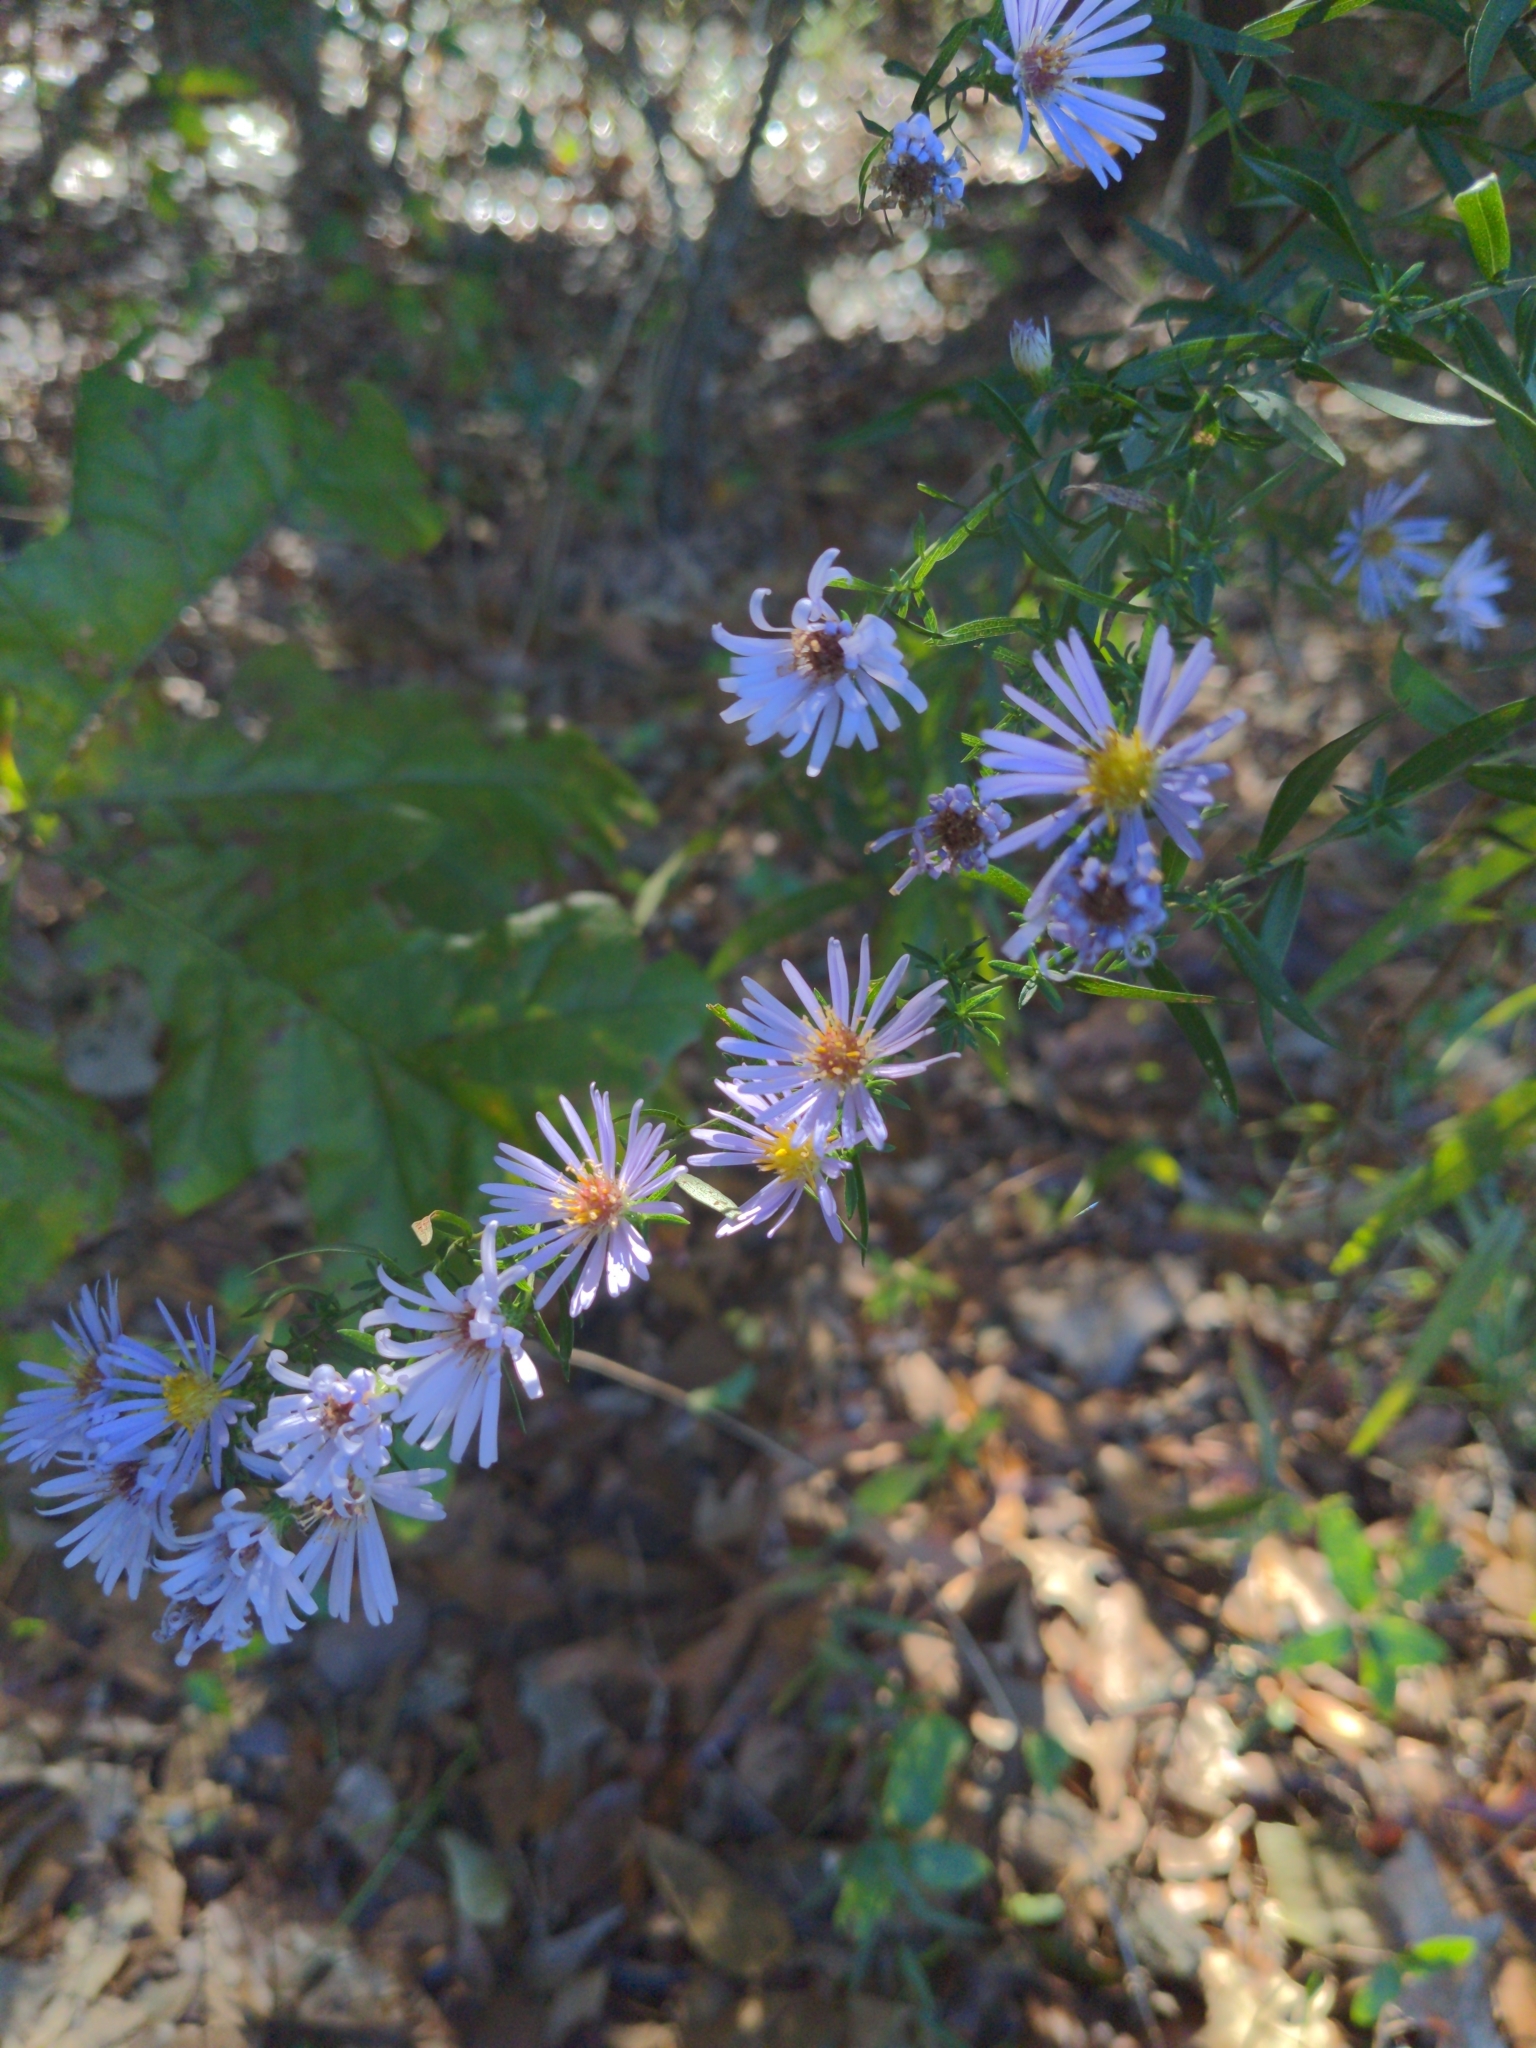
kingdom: Plantae
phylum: Tracheophyta
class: Magnoliopsida
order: Asterales
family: Asteraceae
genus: Symphyotrichum
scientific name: Symphyotrichum praealtum
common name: Willow aster
